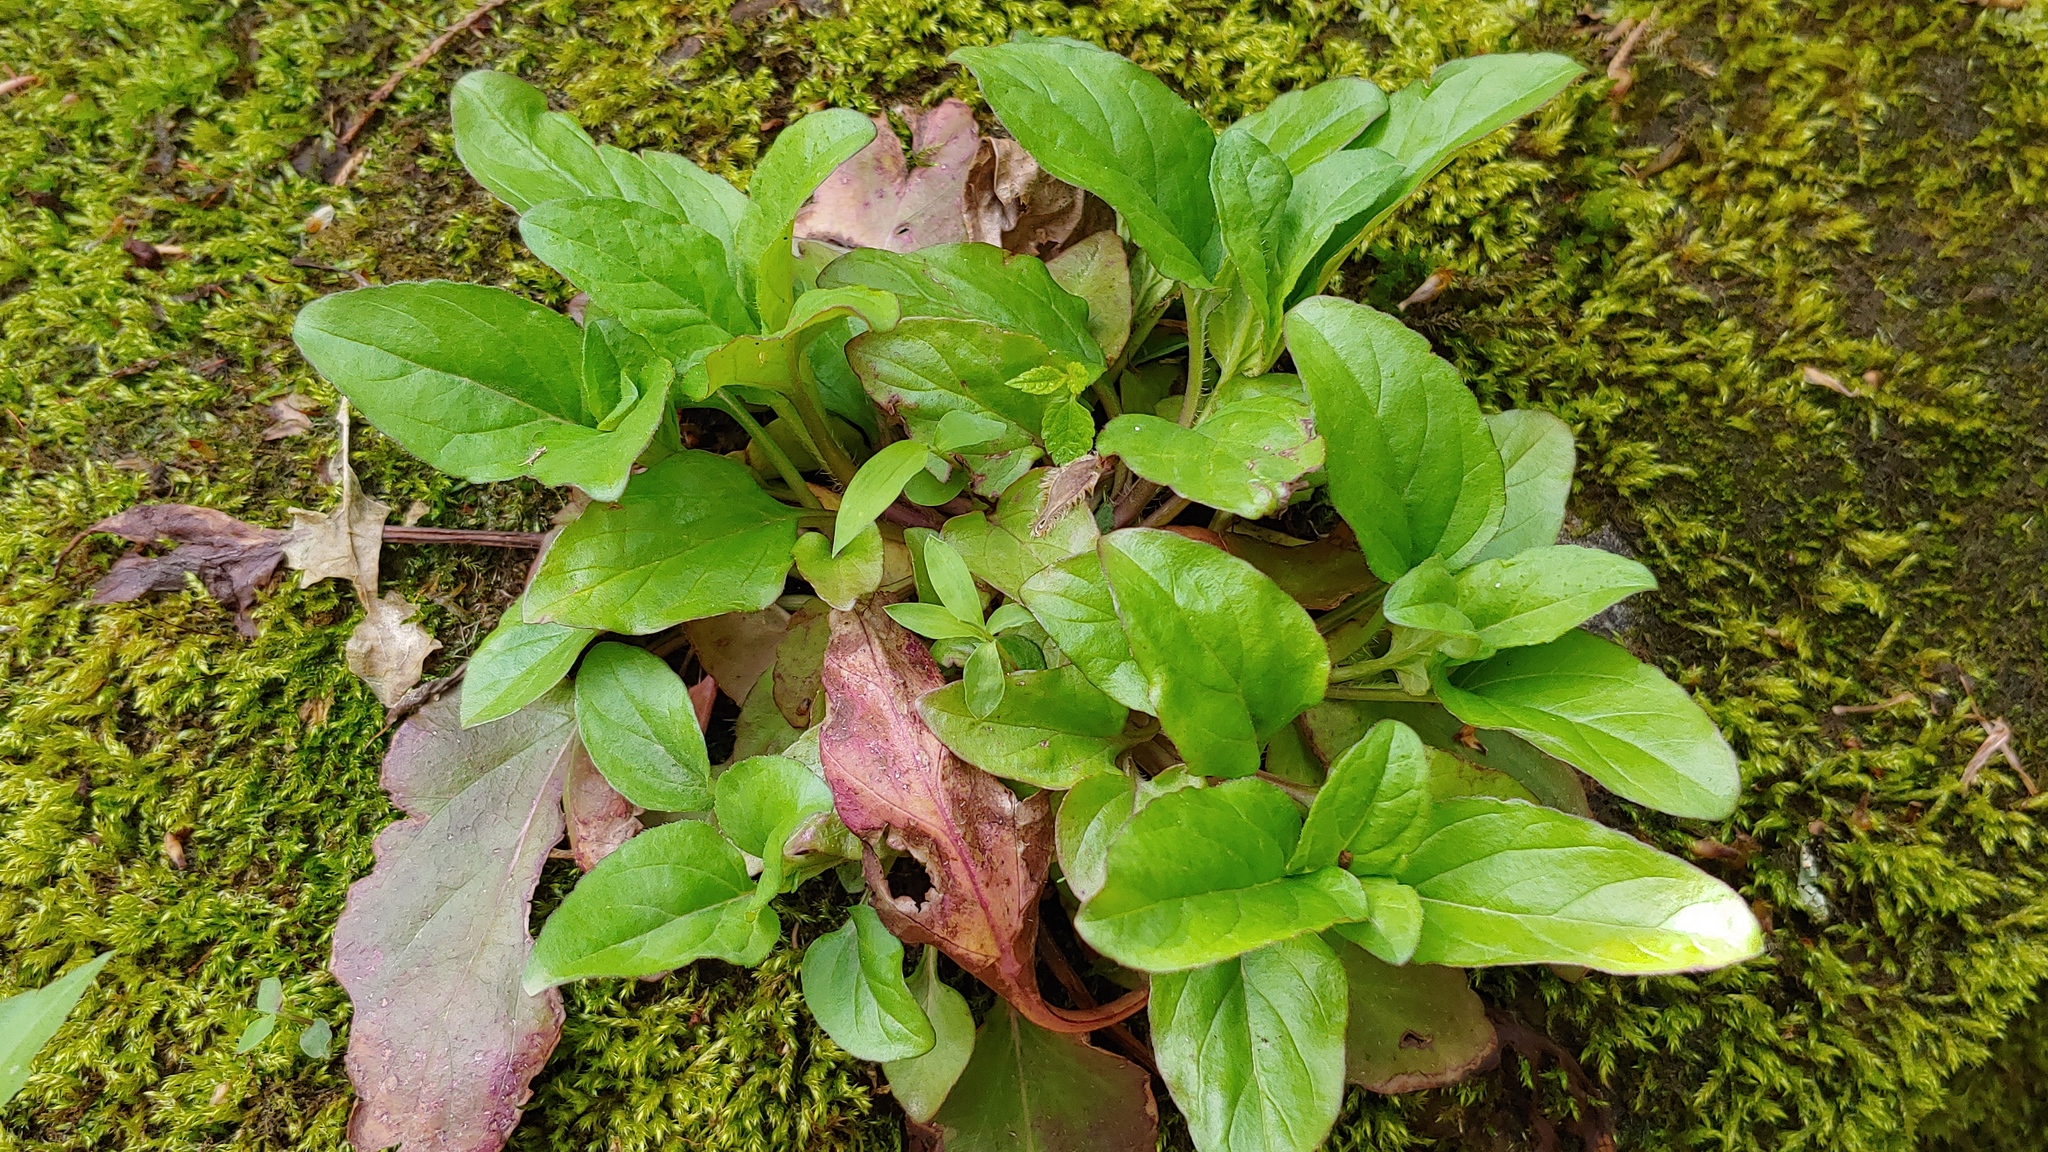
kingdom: Plantae
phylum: Tracheophyta
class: Magnoliopsida
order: Lamiales
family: Lamiaceae
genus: Prunella
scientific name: Prunella vulgaris
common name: Heal-all
